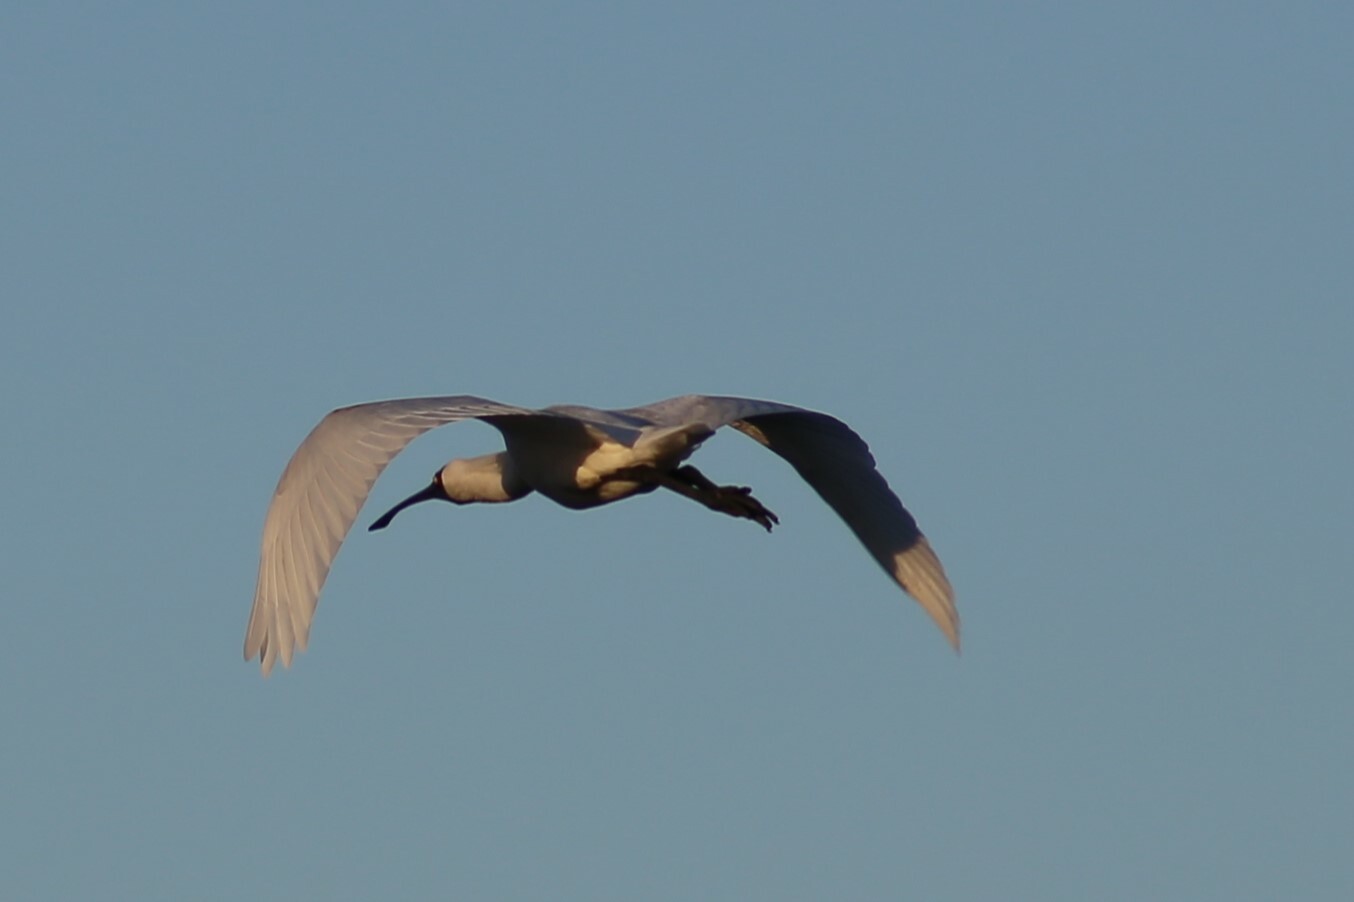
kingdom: Animalia
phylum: Chordata
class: Aves
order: Pelecaniformes
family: Threskiornithidae
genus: Platalea
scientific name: Platalea regia
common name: Royal spoonbill
